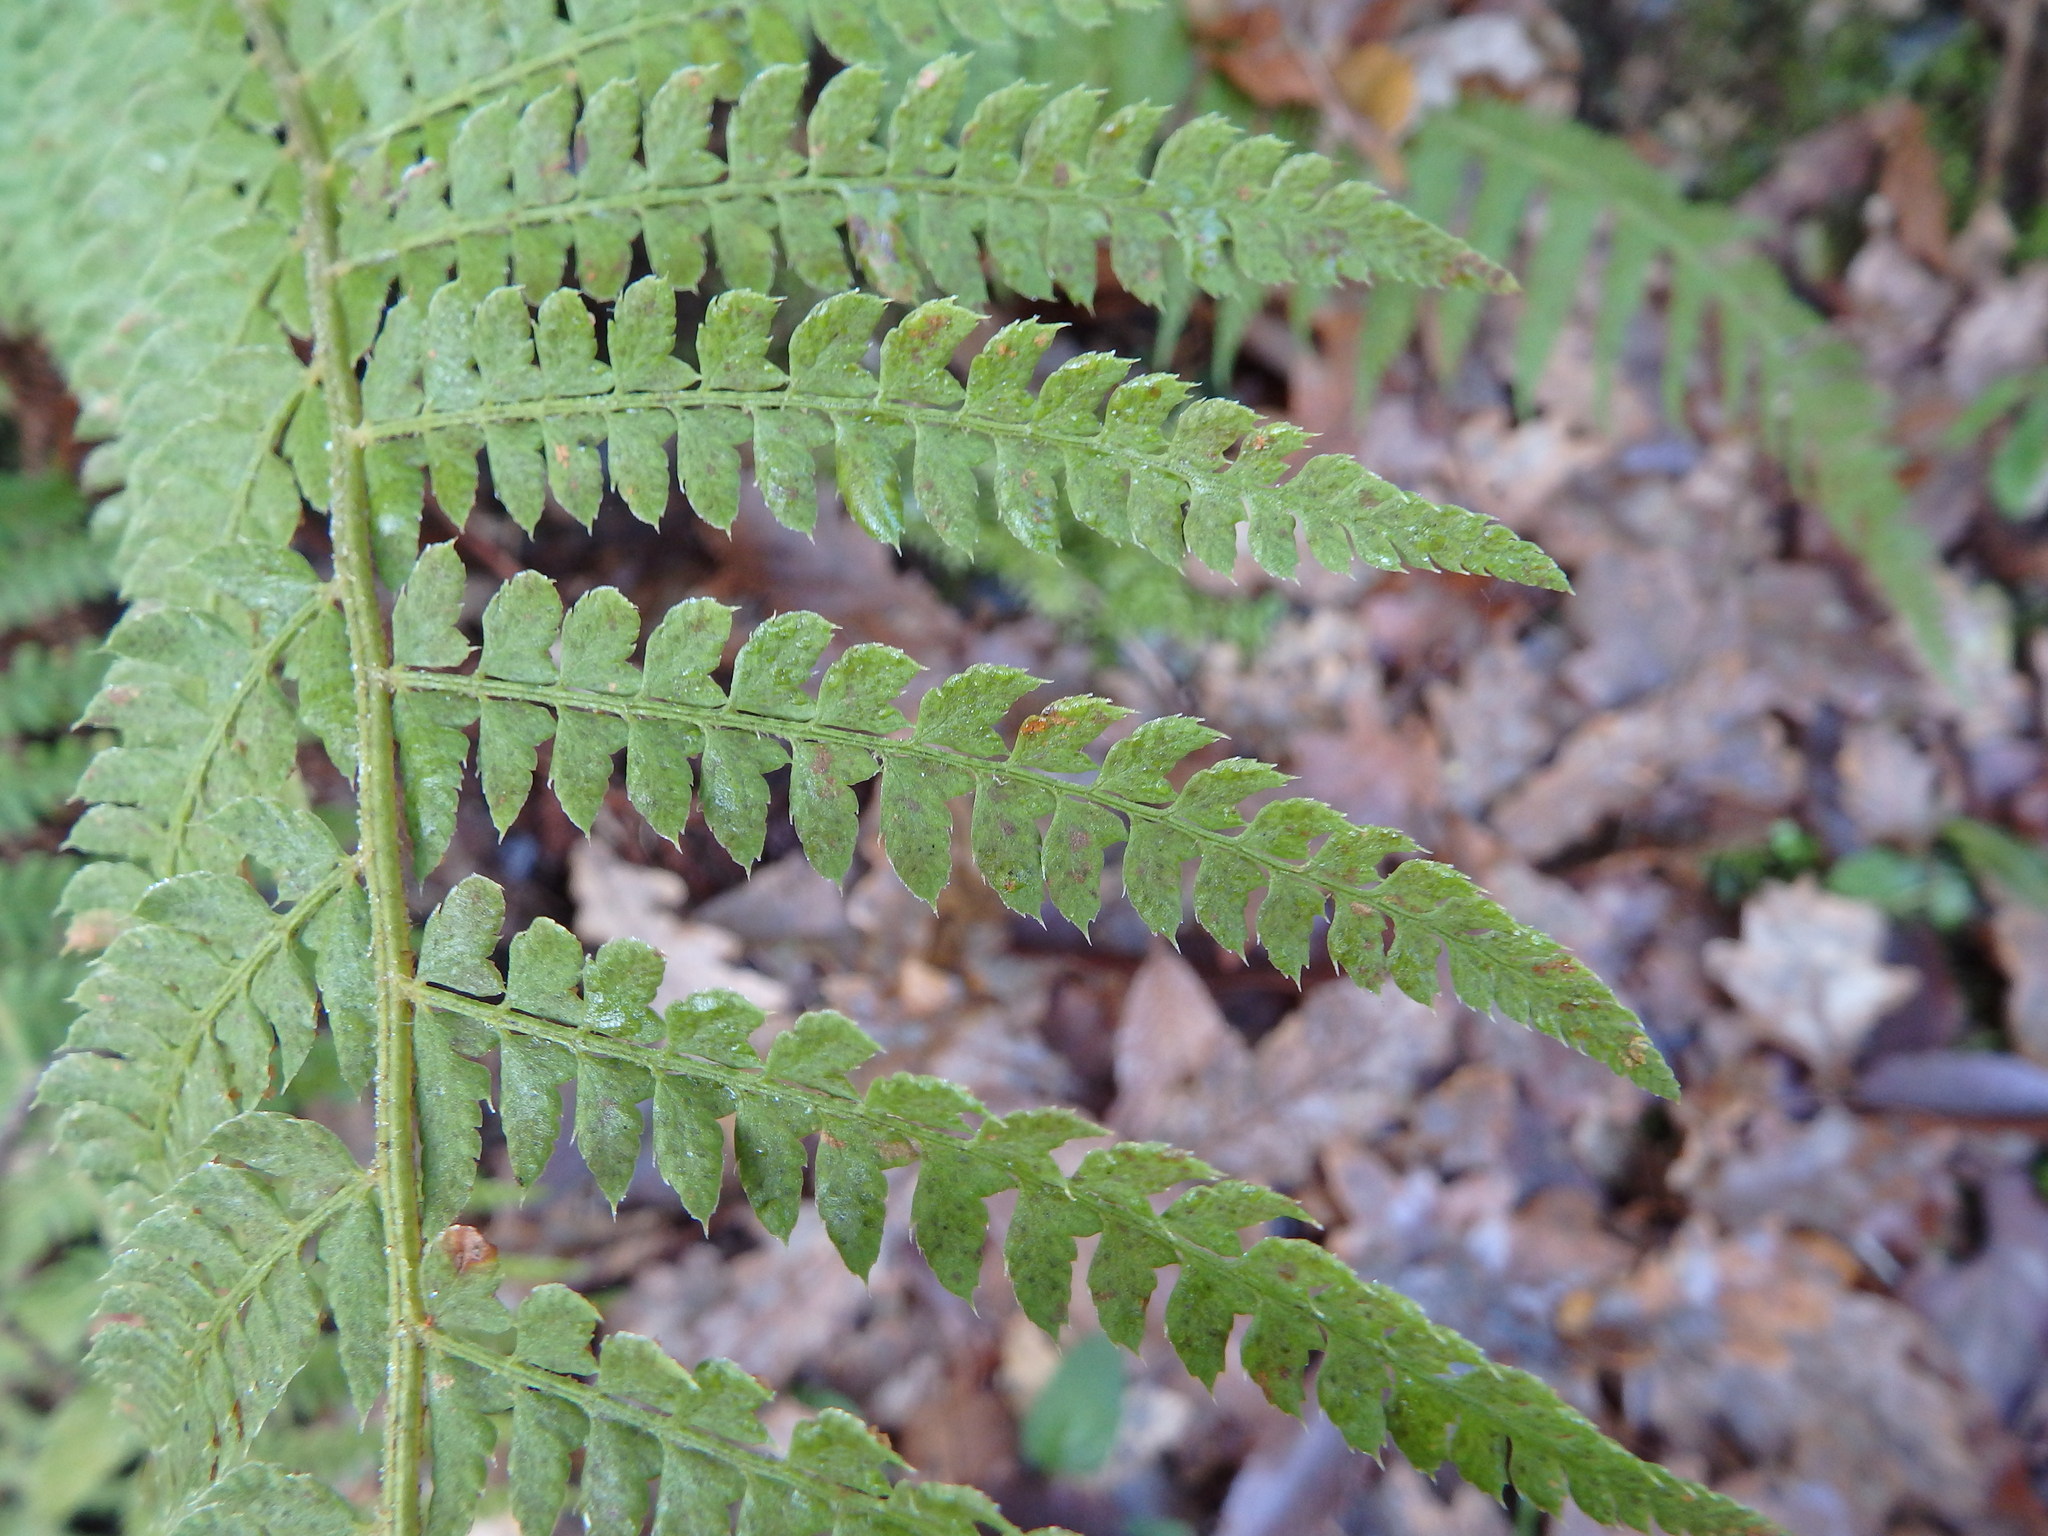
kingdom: Plantae
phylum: Tracheophyta
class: Polypodiopsida
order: Polypodiales
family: Dryopteridaceae
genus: Polystichum
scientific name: Polystichum setiferum
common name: Soft shield-fern
